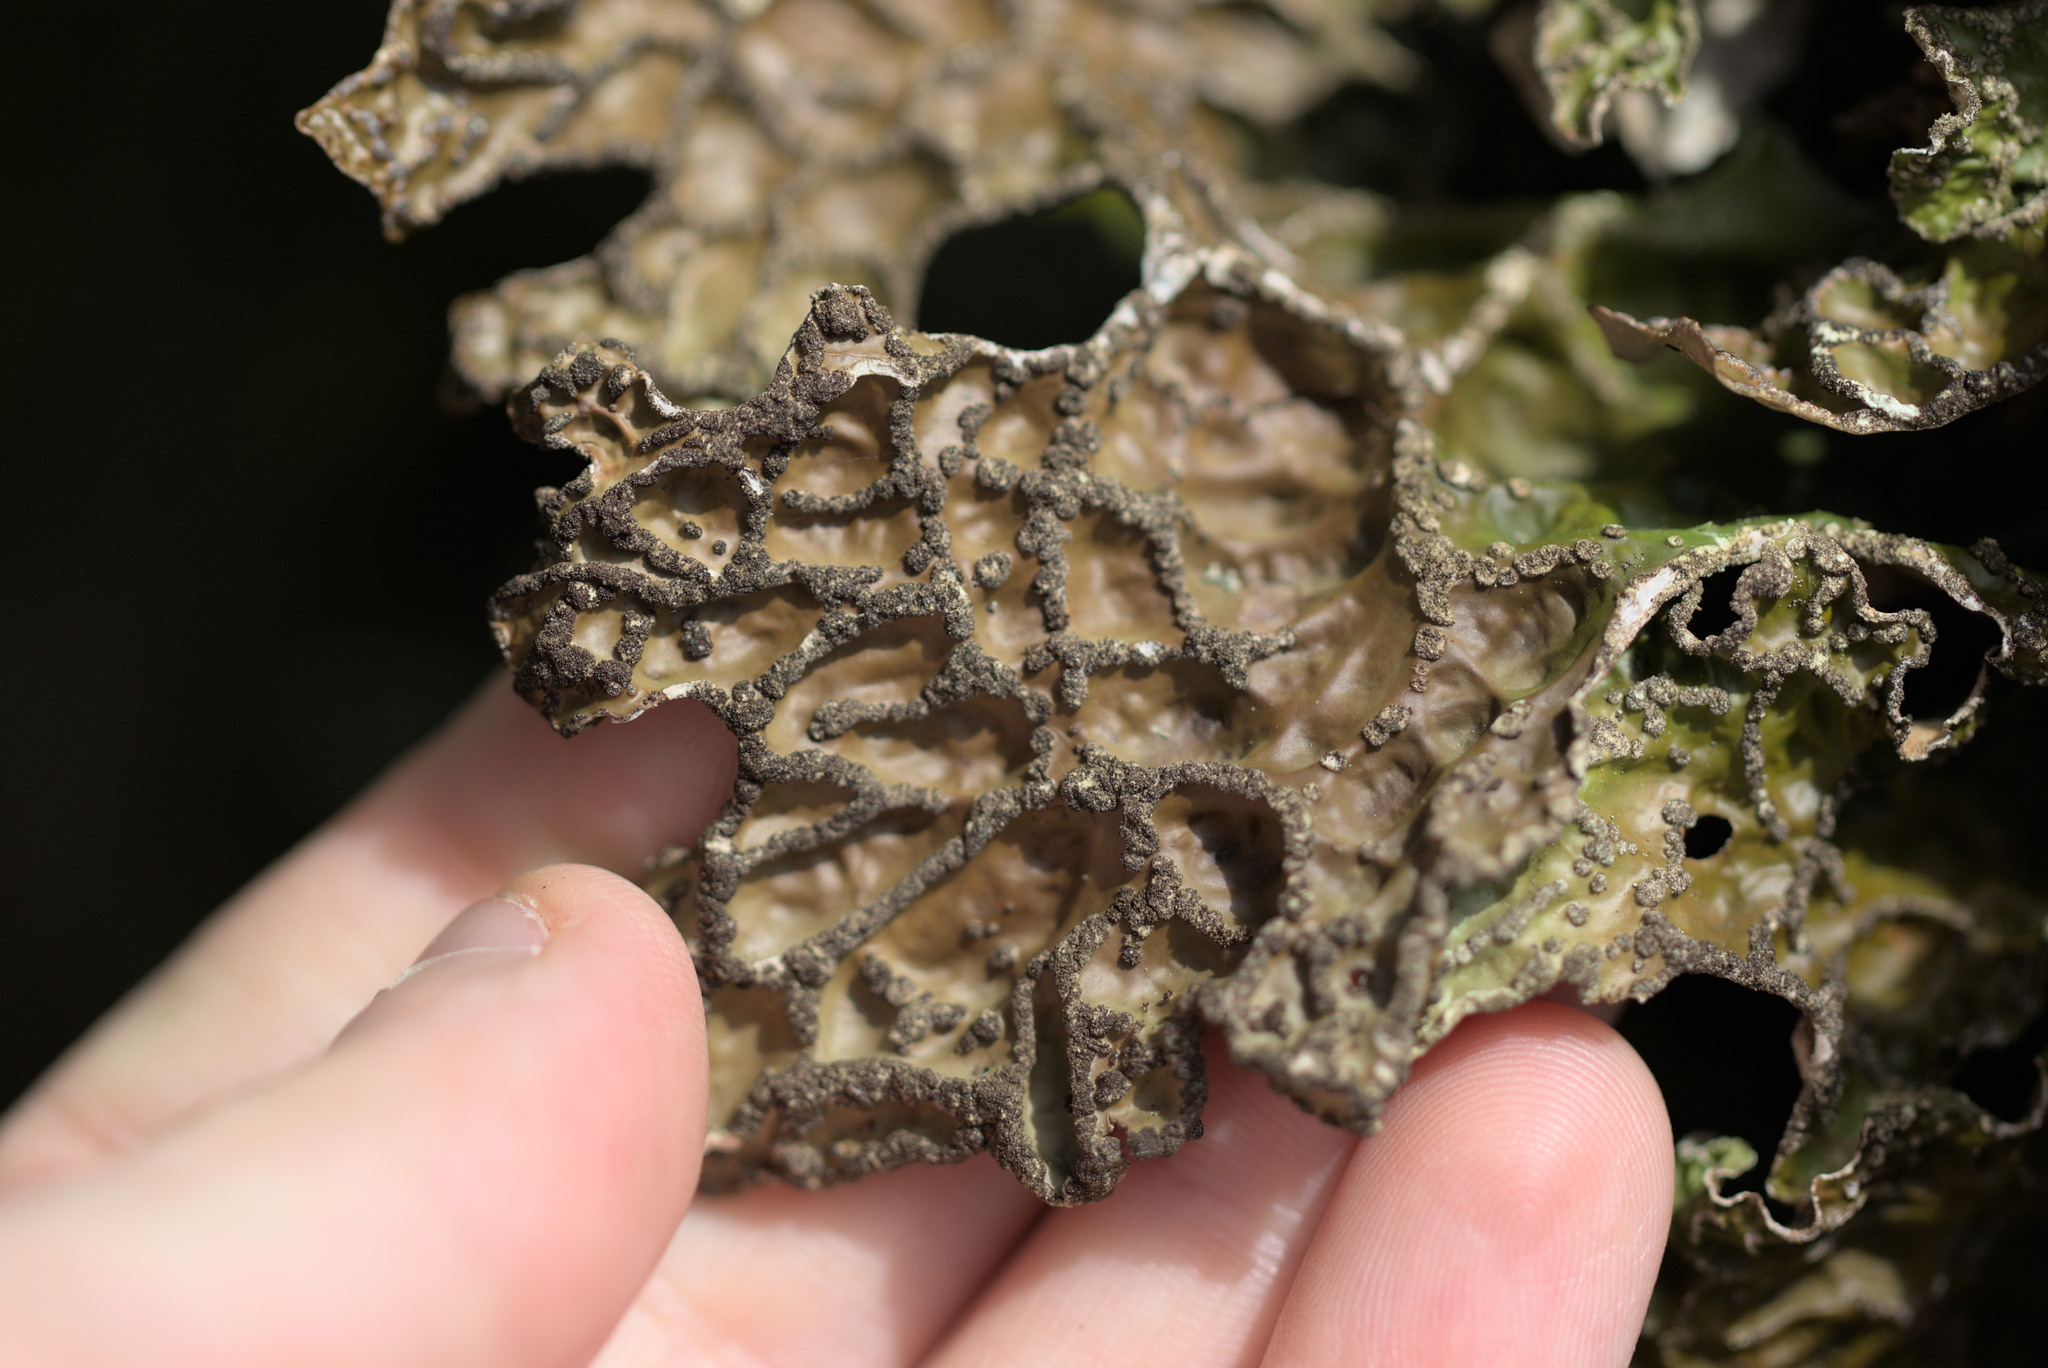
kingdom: Fungi
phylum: Ascomycota
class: Lecanoromycetes
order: Peltigerales
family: Lobariaceae
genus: Lobaria
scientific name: Lobaria pulmonaria
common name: Lungwort
